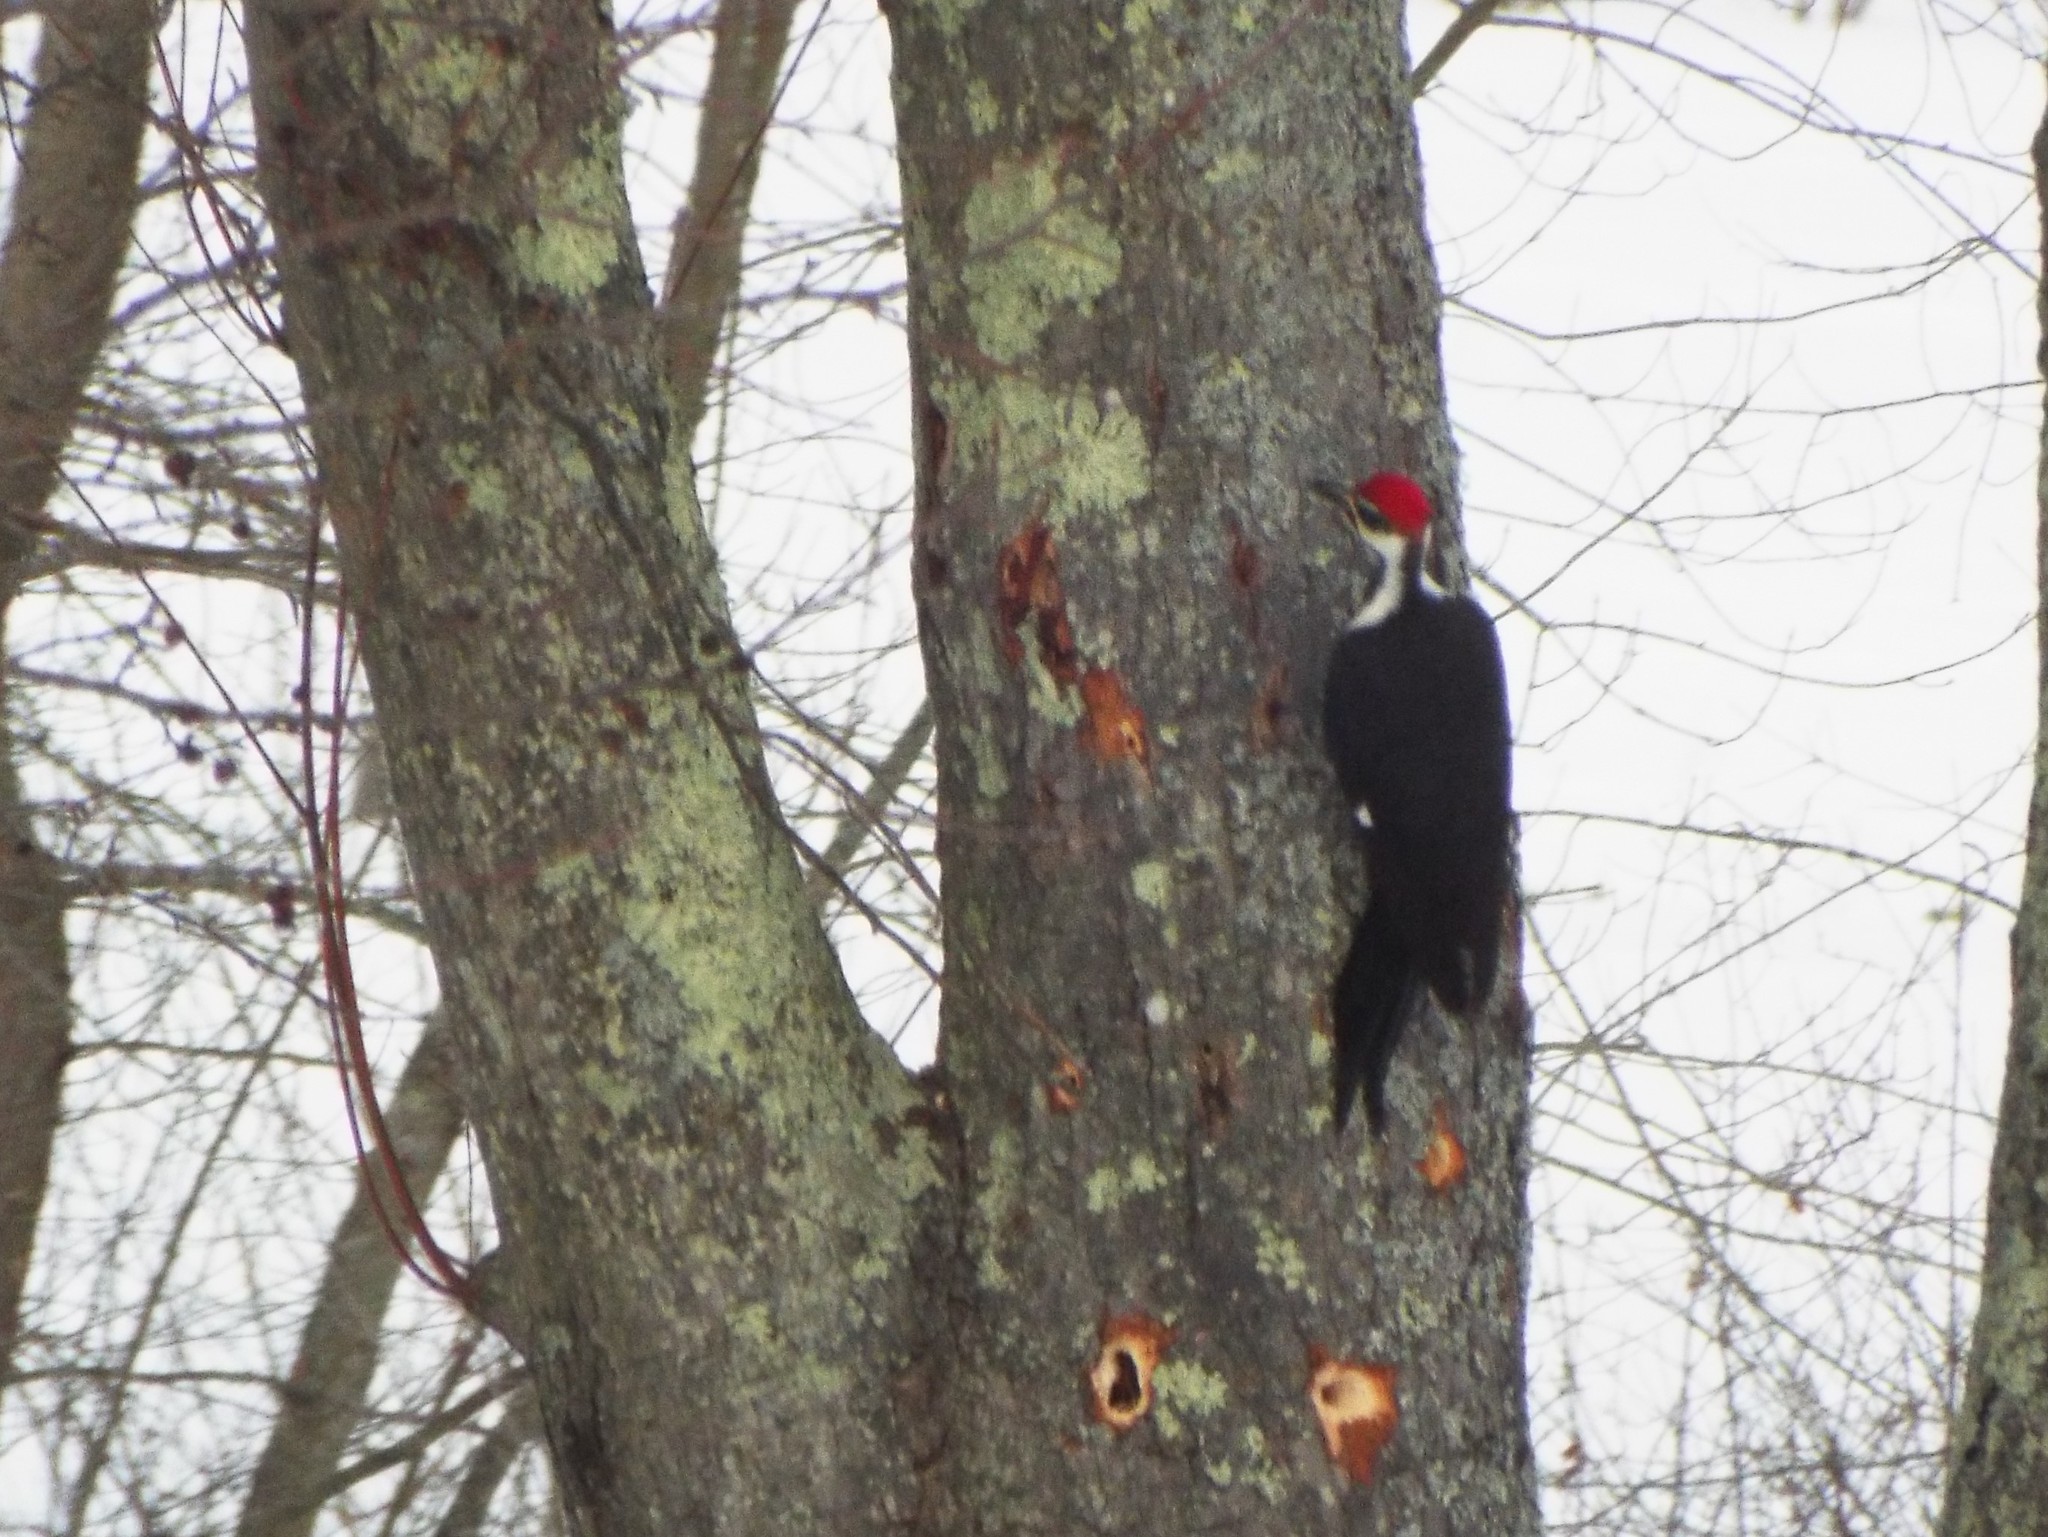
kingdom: Animalia
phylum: Chordata
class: Aves
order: Piciformes
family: Picidae
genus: Dryocopus
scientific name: Dryocopus pileatus
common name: Pileated woodpecker
